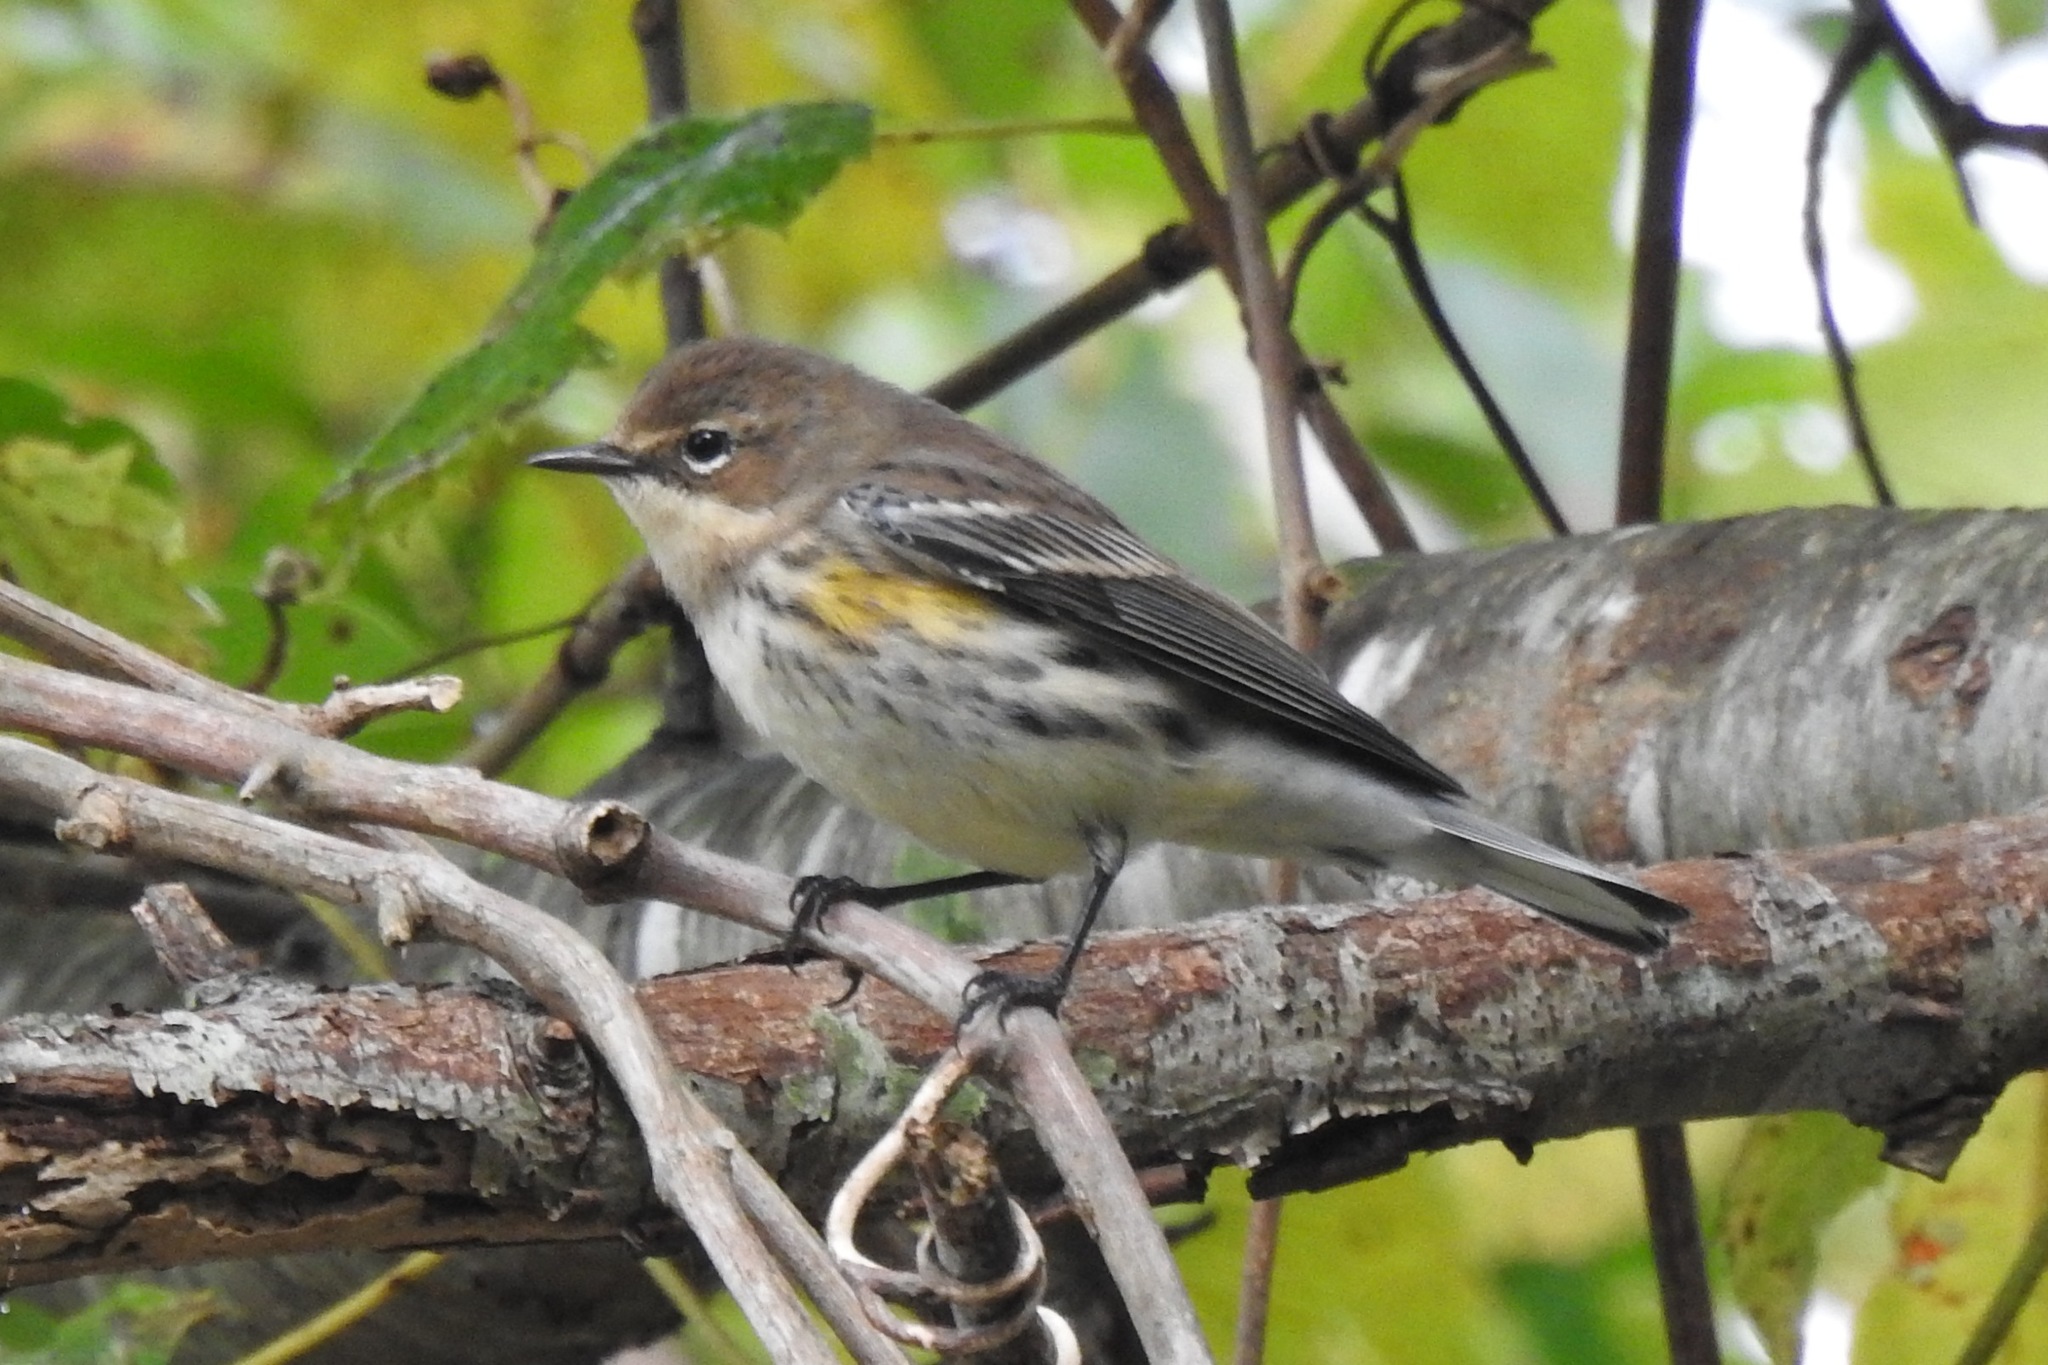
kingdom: Animalia
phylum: Chordata
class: Aves
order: Passeriformes
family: Parulidae
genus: Setophaga
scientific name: Setophaga coronata
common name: Myrtle warbler
